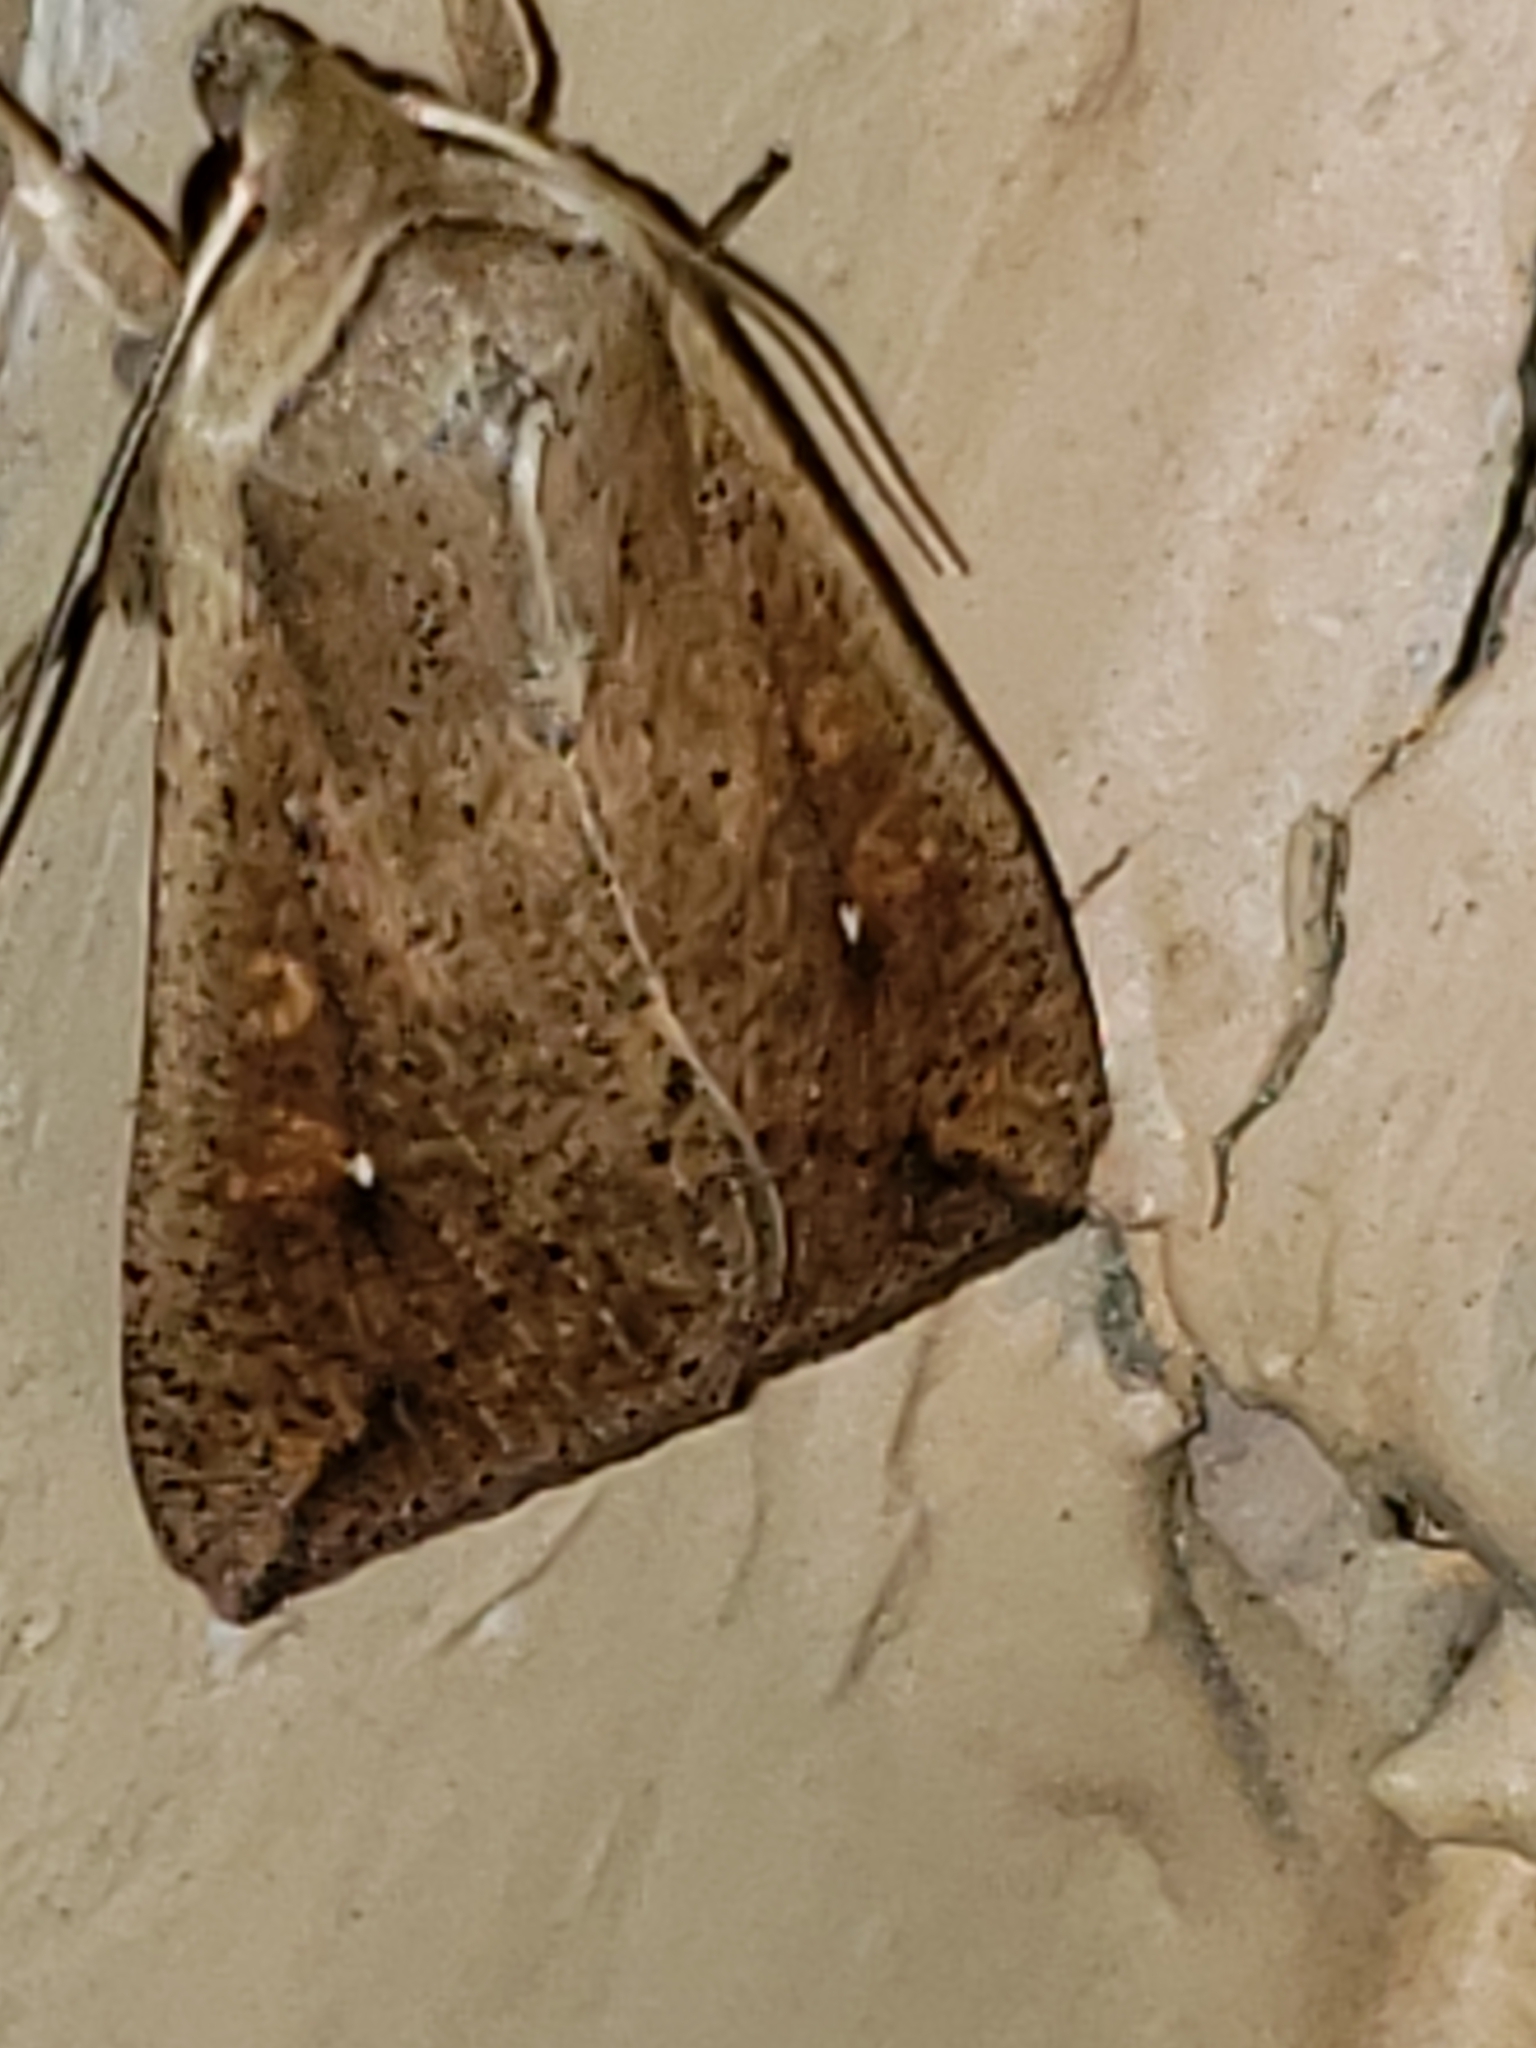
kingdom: Animalia
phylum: Arthropoda
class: Insecta
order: Lepidoptera
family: Noctuidae
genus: Mythimna
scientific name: Mythimna unipuncta
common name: White-speck
